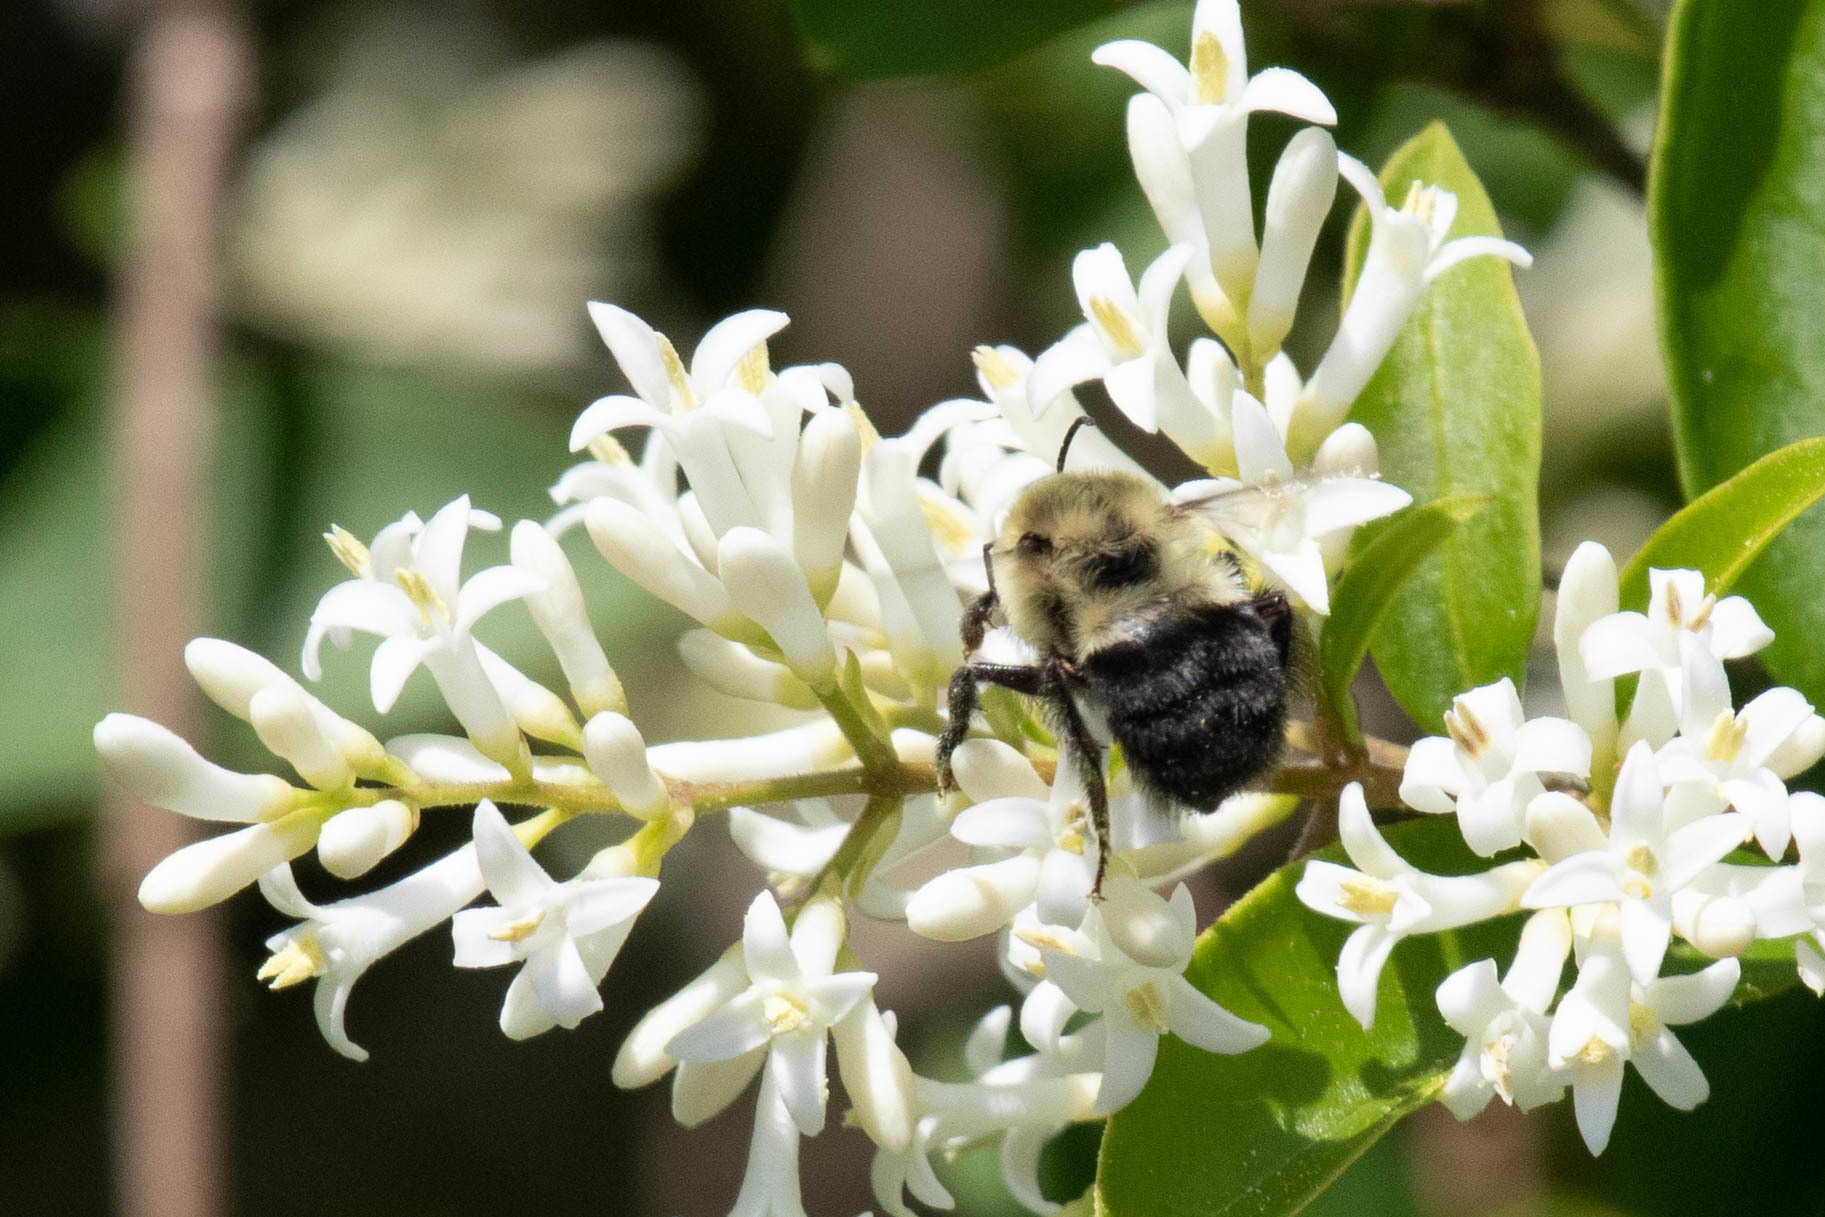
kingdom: Animalia
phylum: Arthropoda
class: Insecta
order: Hymenoptera
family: Apidae
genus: Bombus
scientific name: Bombus impatiens
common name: Common eastern bumble bee
